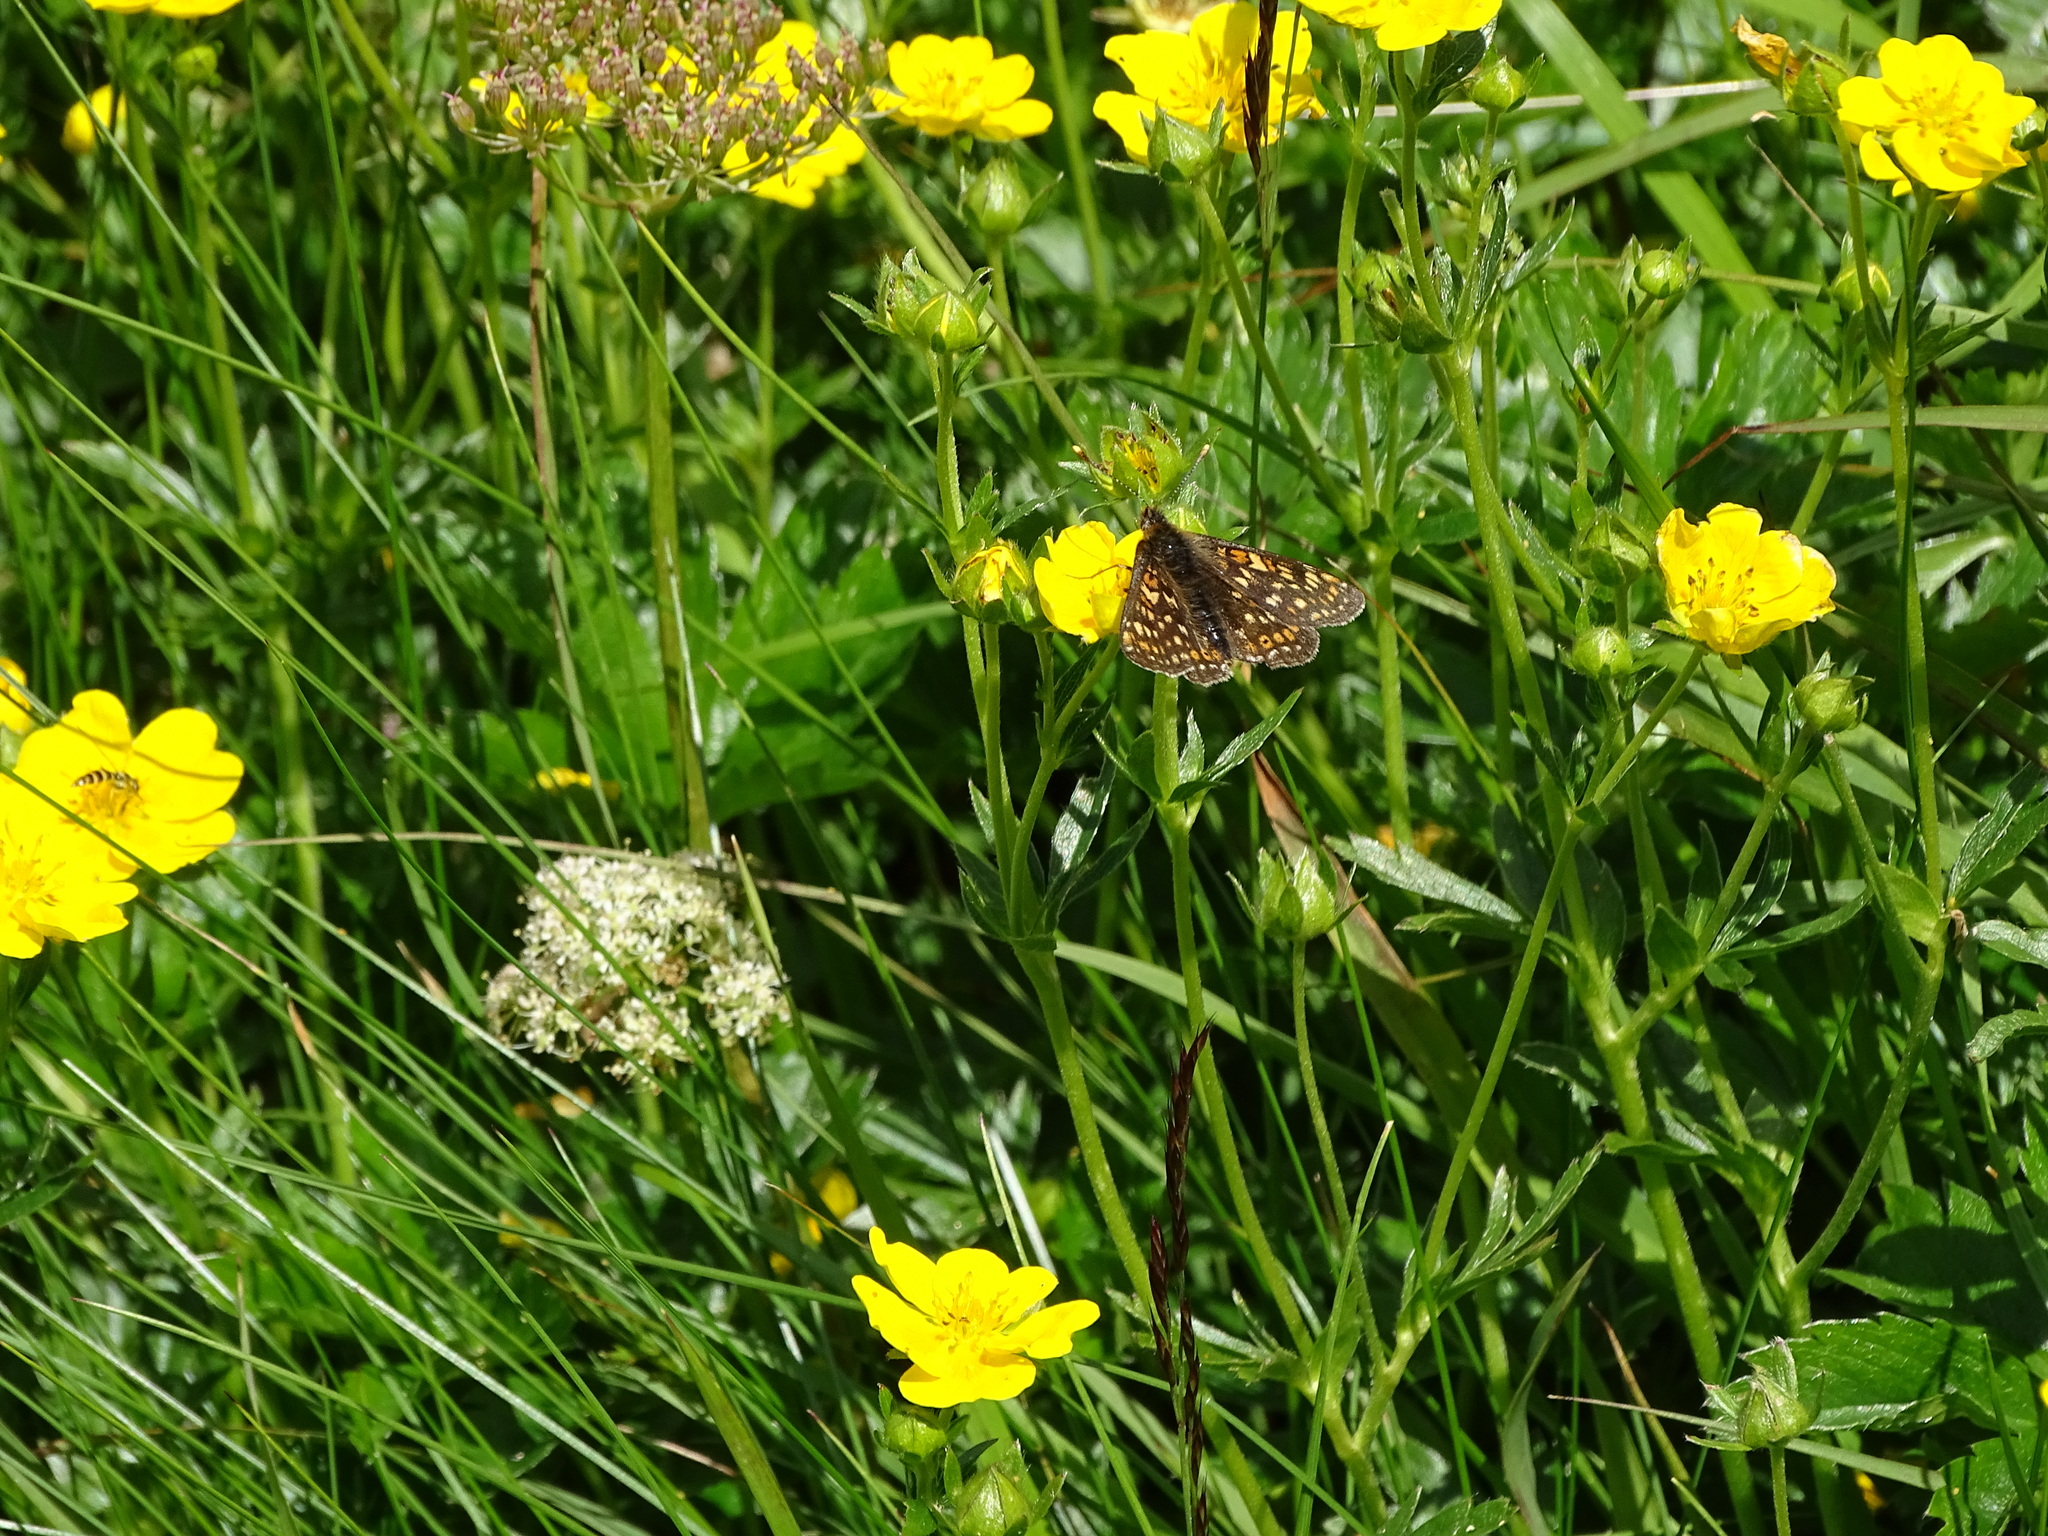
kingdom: Animalia
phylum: Arthropoda
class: Insecta
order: Lepidoptera
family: Nymphalidae
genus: Euphydryas
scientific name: Euphydryas aurinia
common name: Marsh fritillary
